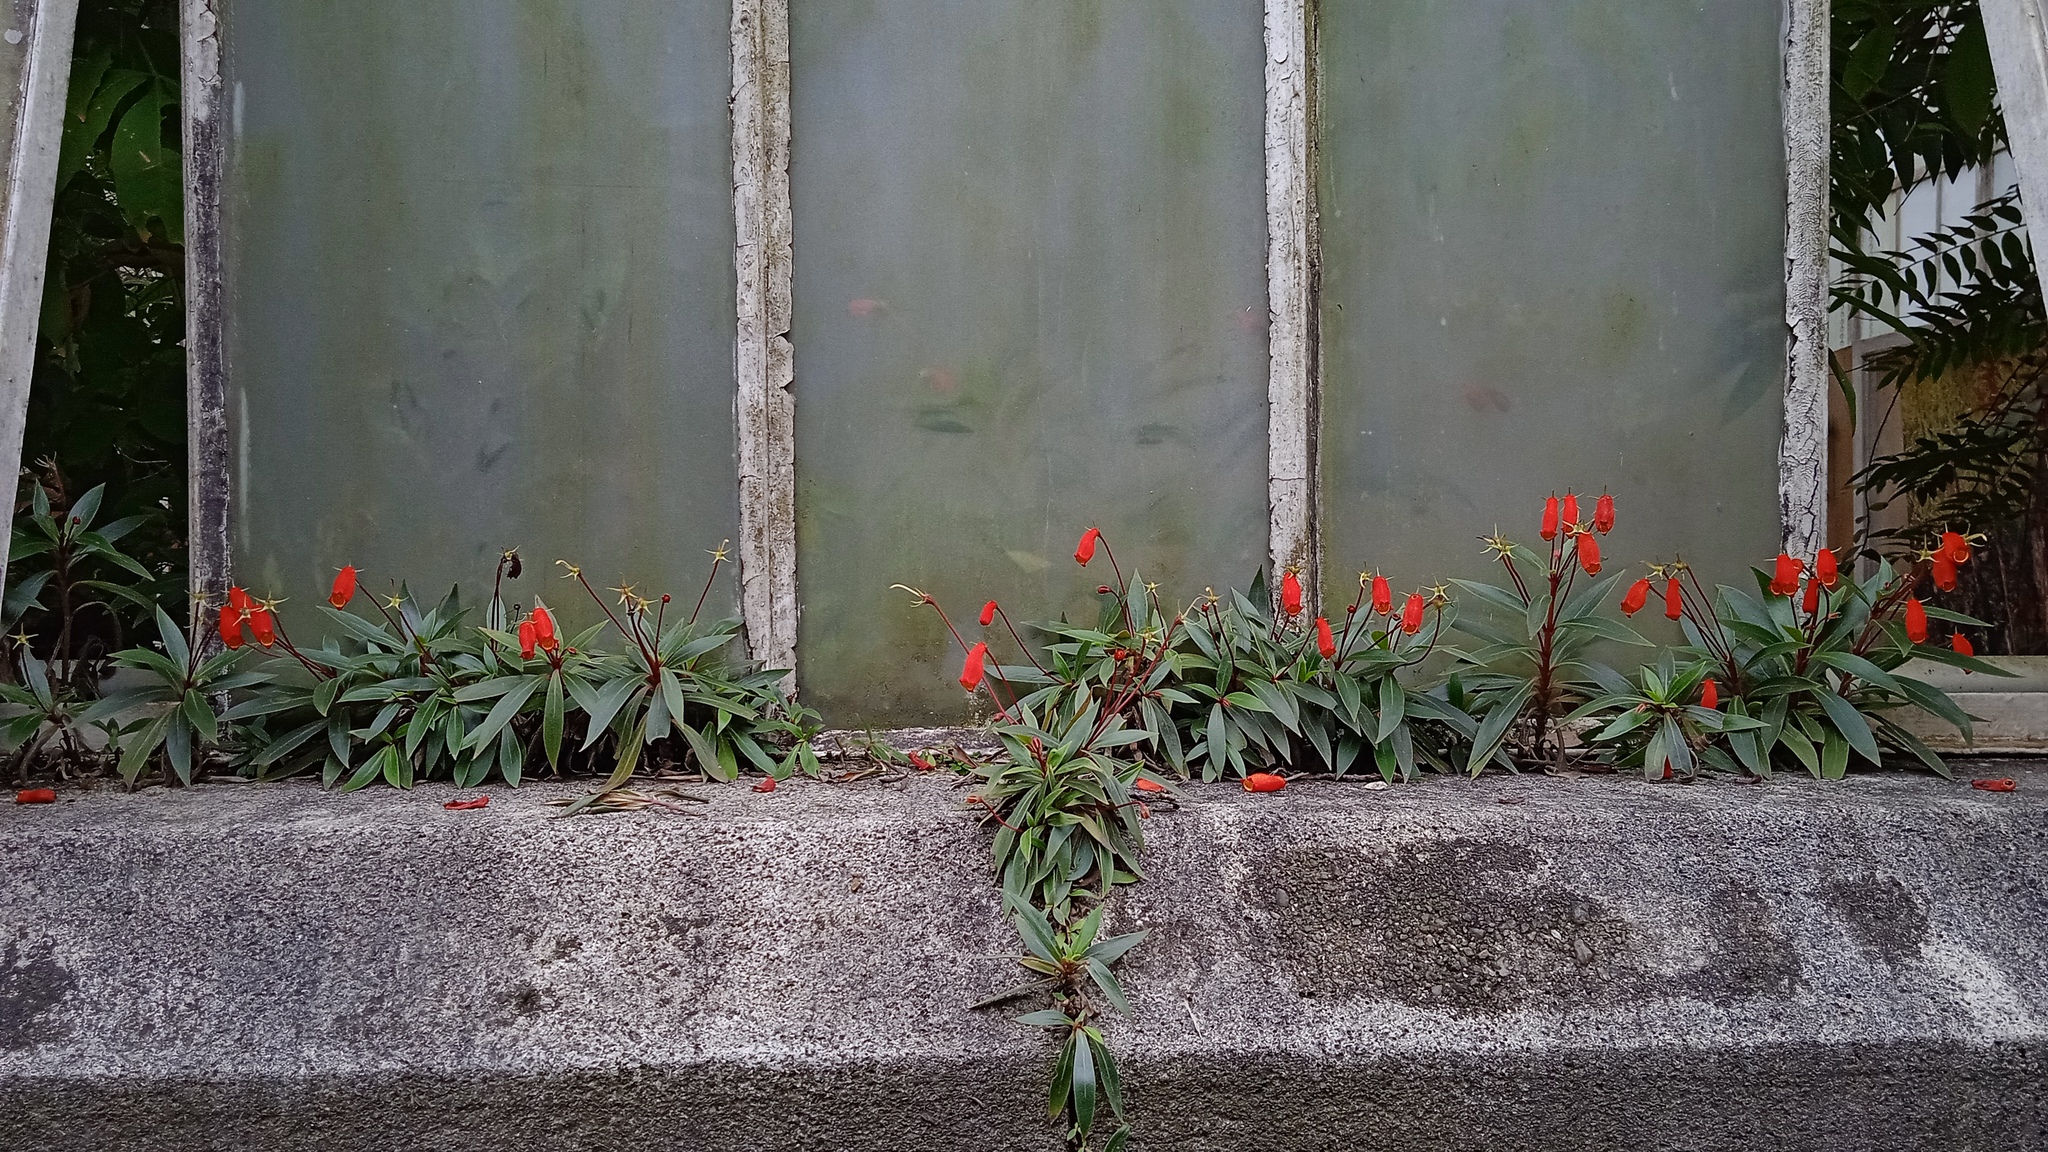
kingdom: Plantae
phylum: Tracheophyta
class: Magnoliopsida
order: Lamiales
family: Gesneriaceae
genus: Seemannia
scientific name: Seemannia sylvatica
